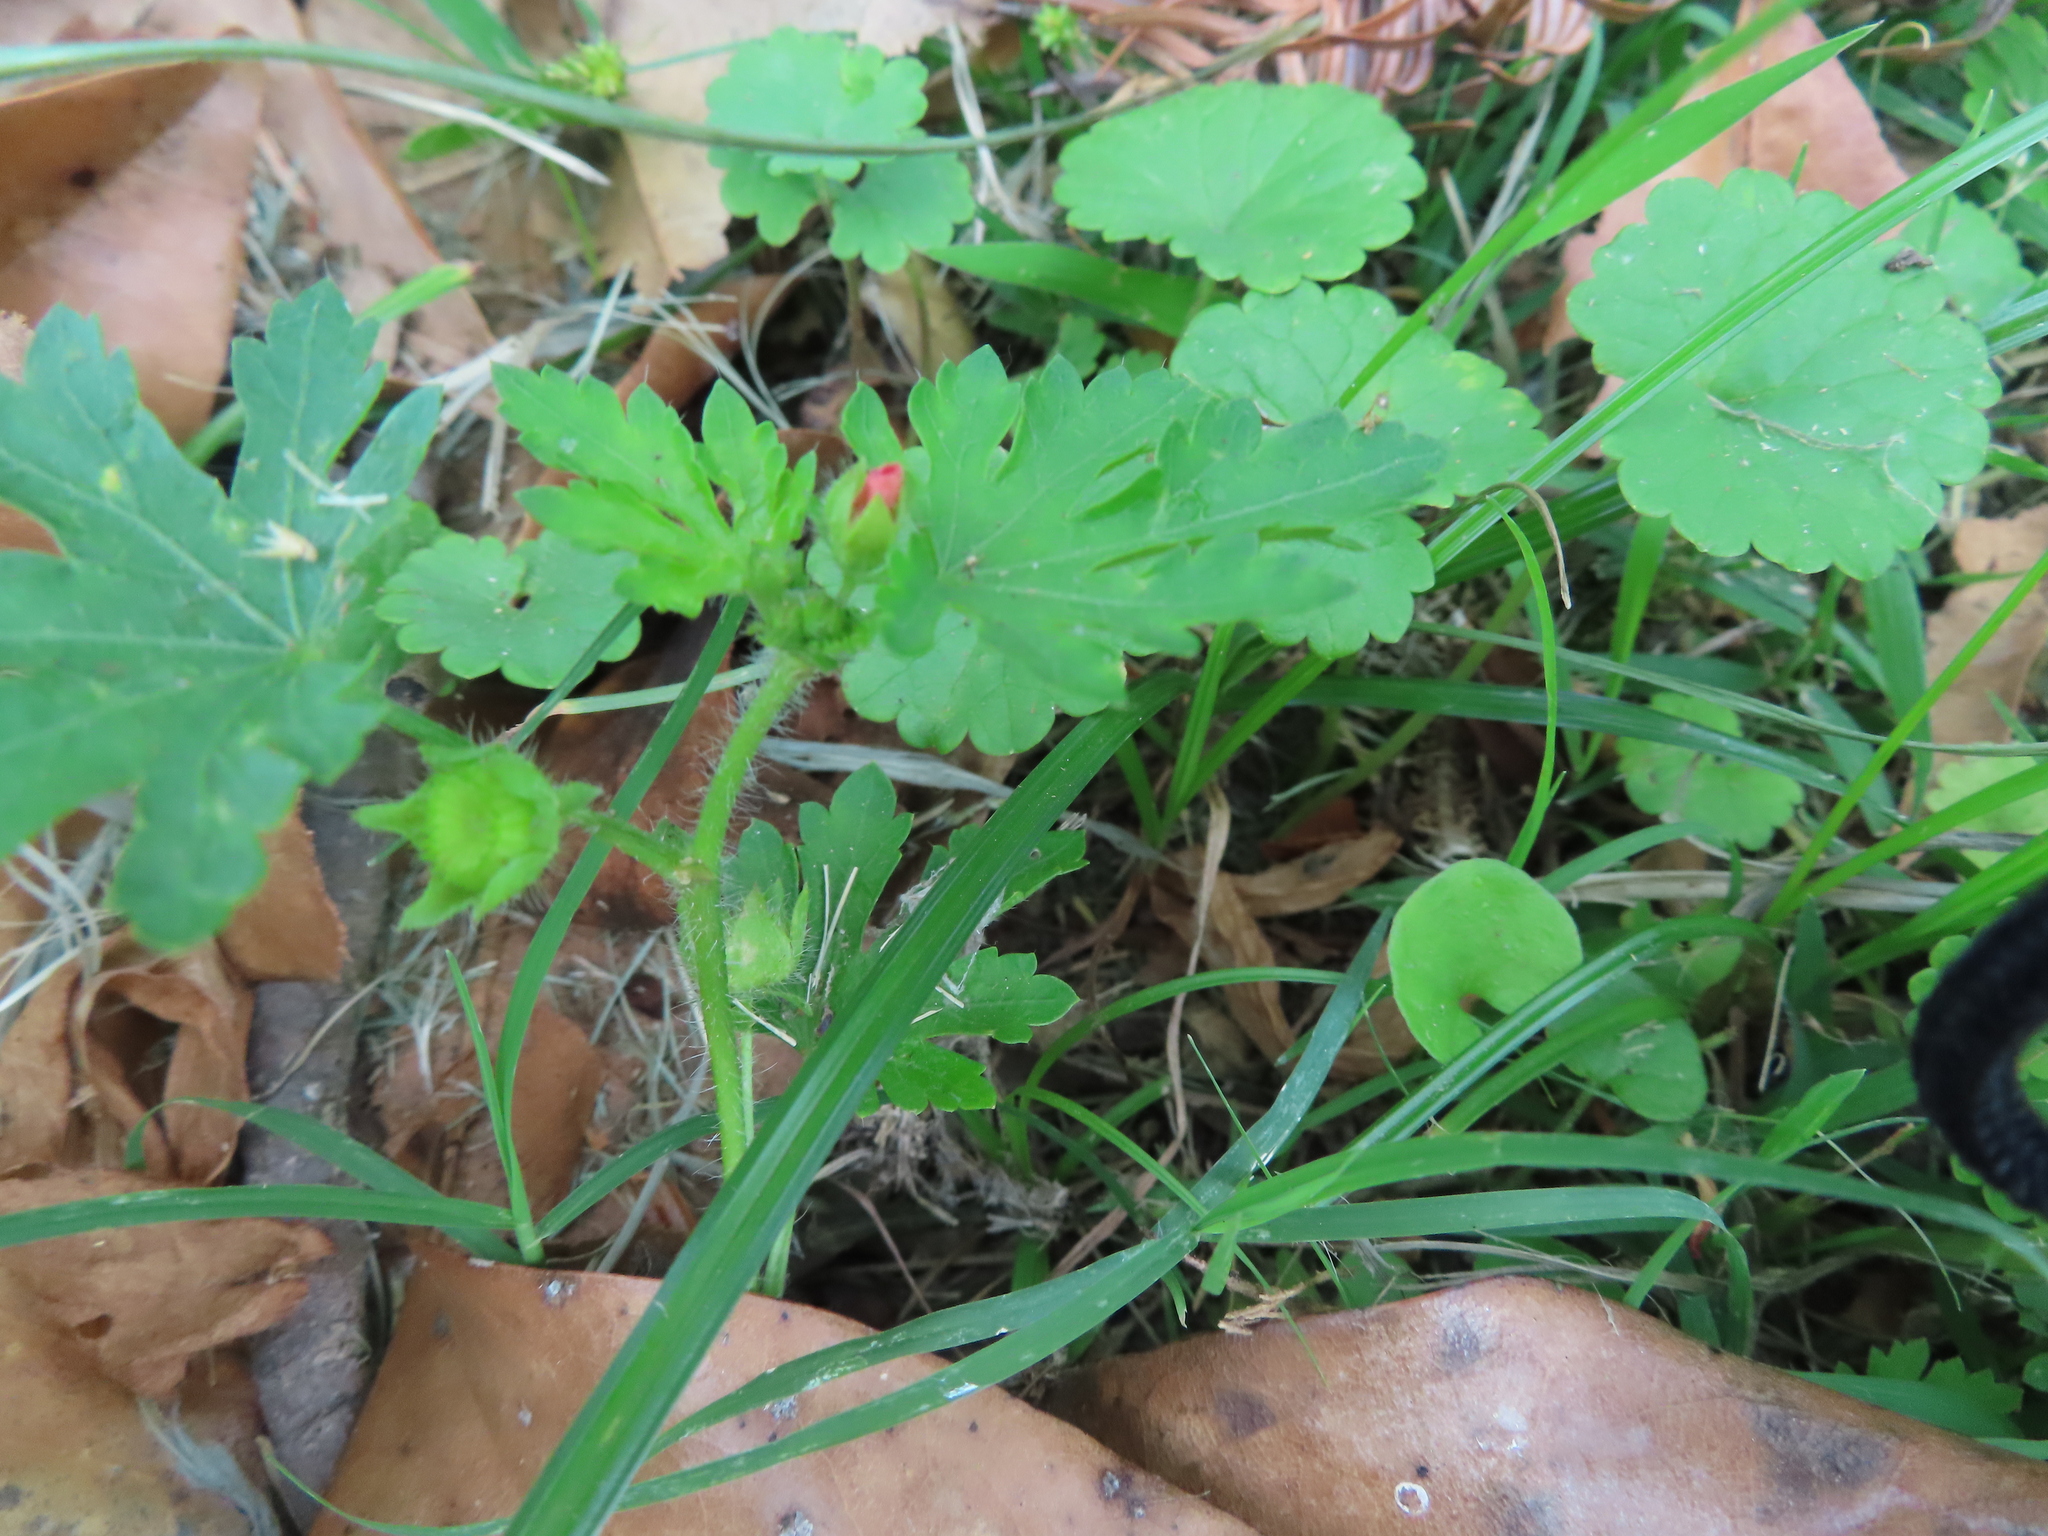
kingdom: Plantae
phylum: Tracheophyta
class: Magnoliopsida
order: Malvales
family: Malvaceae
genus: Modiola
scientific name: Modiola caroliniana
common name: Carolina bristlemallow
